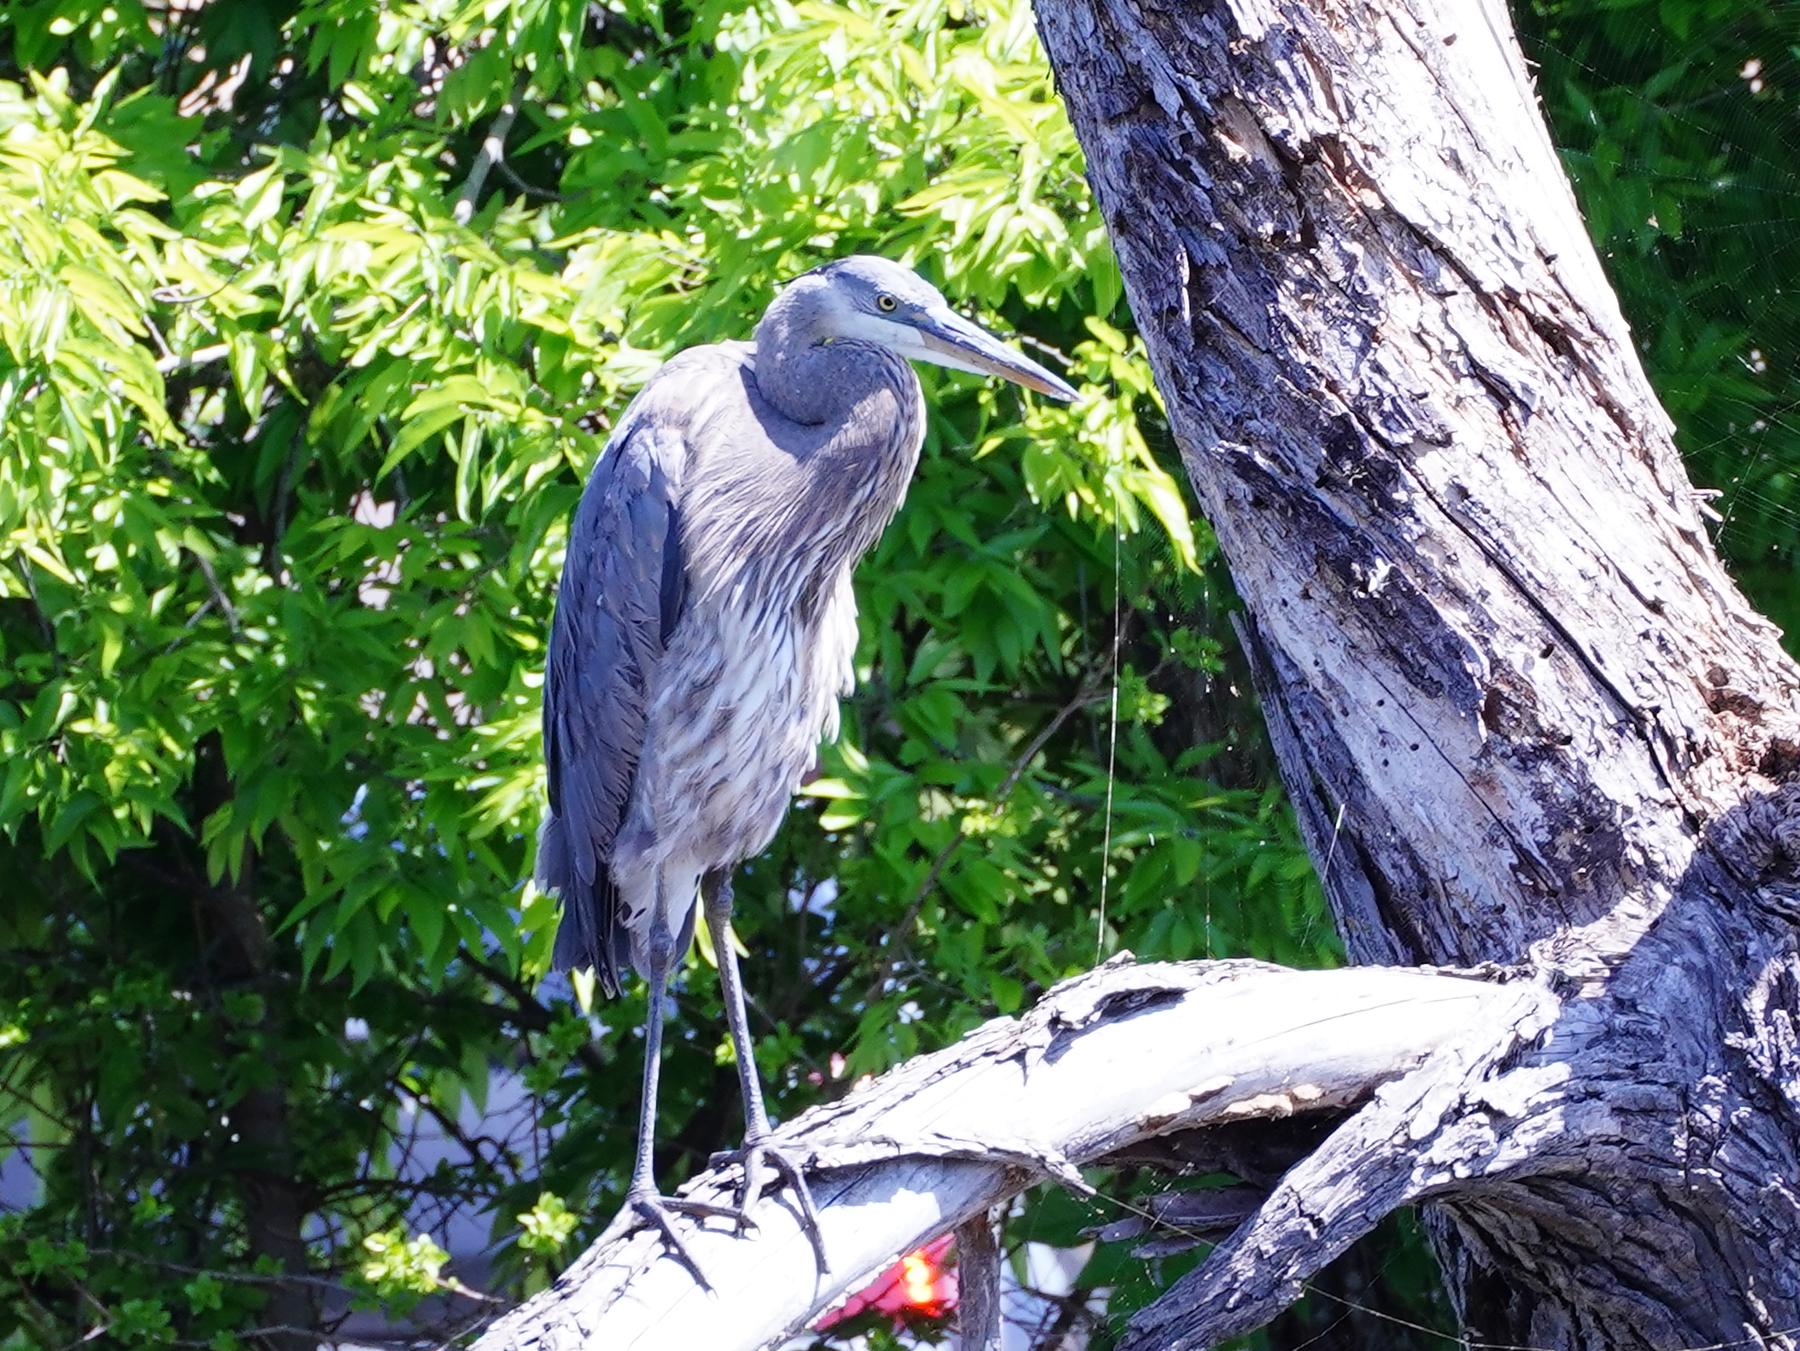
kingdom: Animalia
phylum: Chordata
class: Aves
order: Pelecaniformes
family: Ardeidae
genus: Ardea
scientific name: Ardea herodias
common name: Great blue heron
